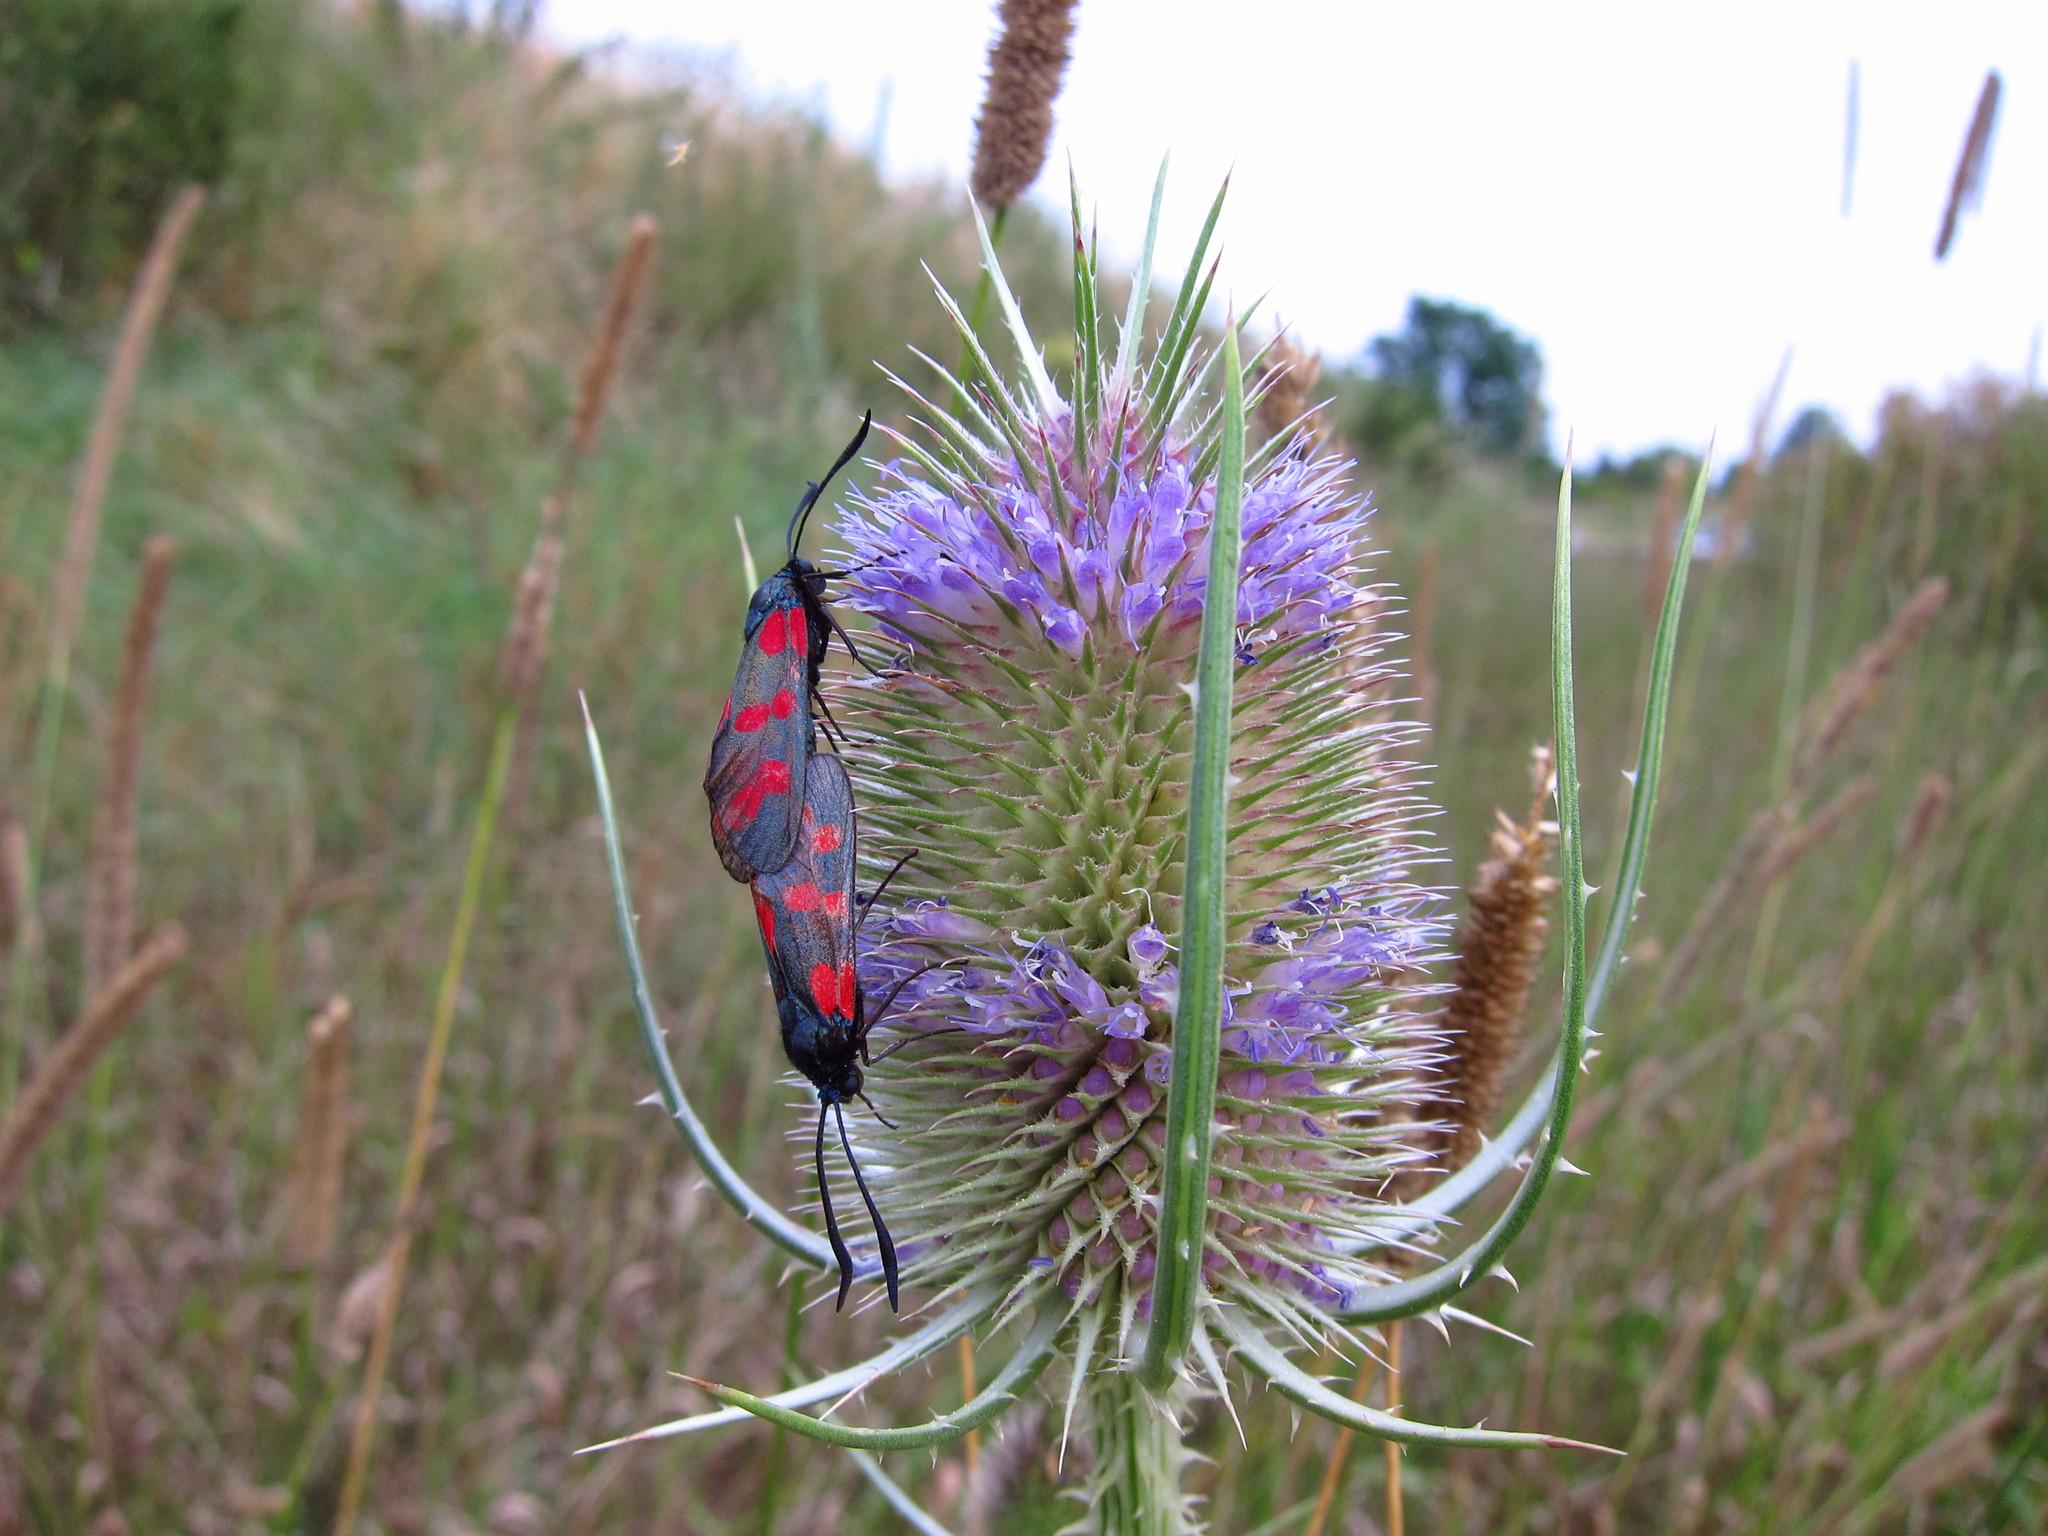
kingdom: Animalia
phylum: Arthropoda
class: Insecta
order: Lepidoptera
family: Zygaenidae
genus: Zygaena
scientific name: Zygaena filipendulae
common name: Six-spot burnet
